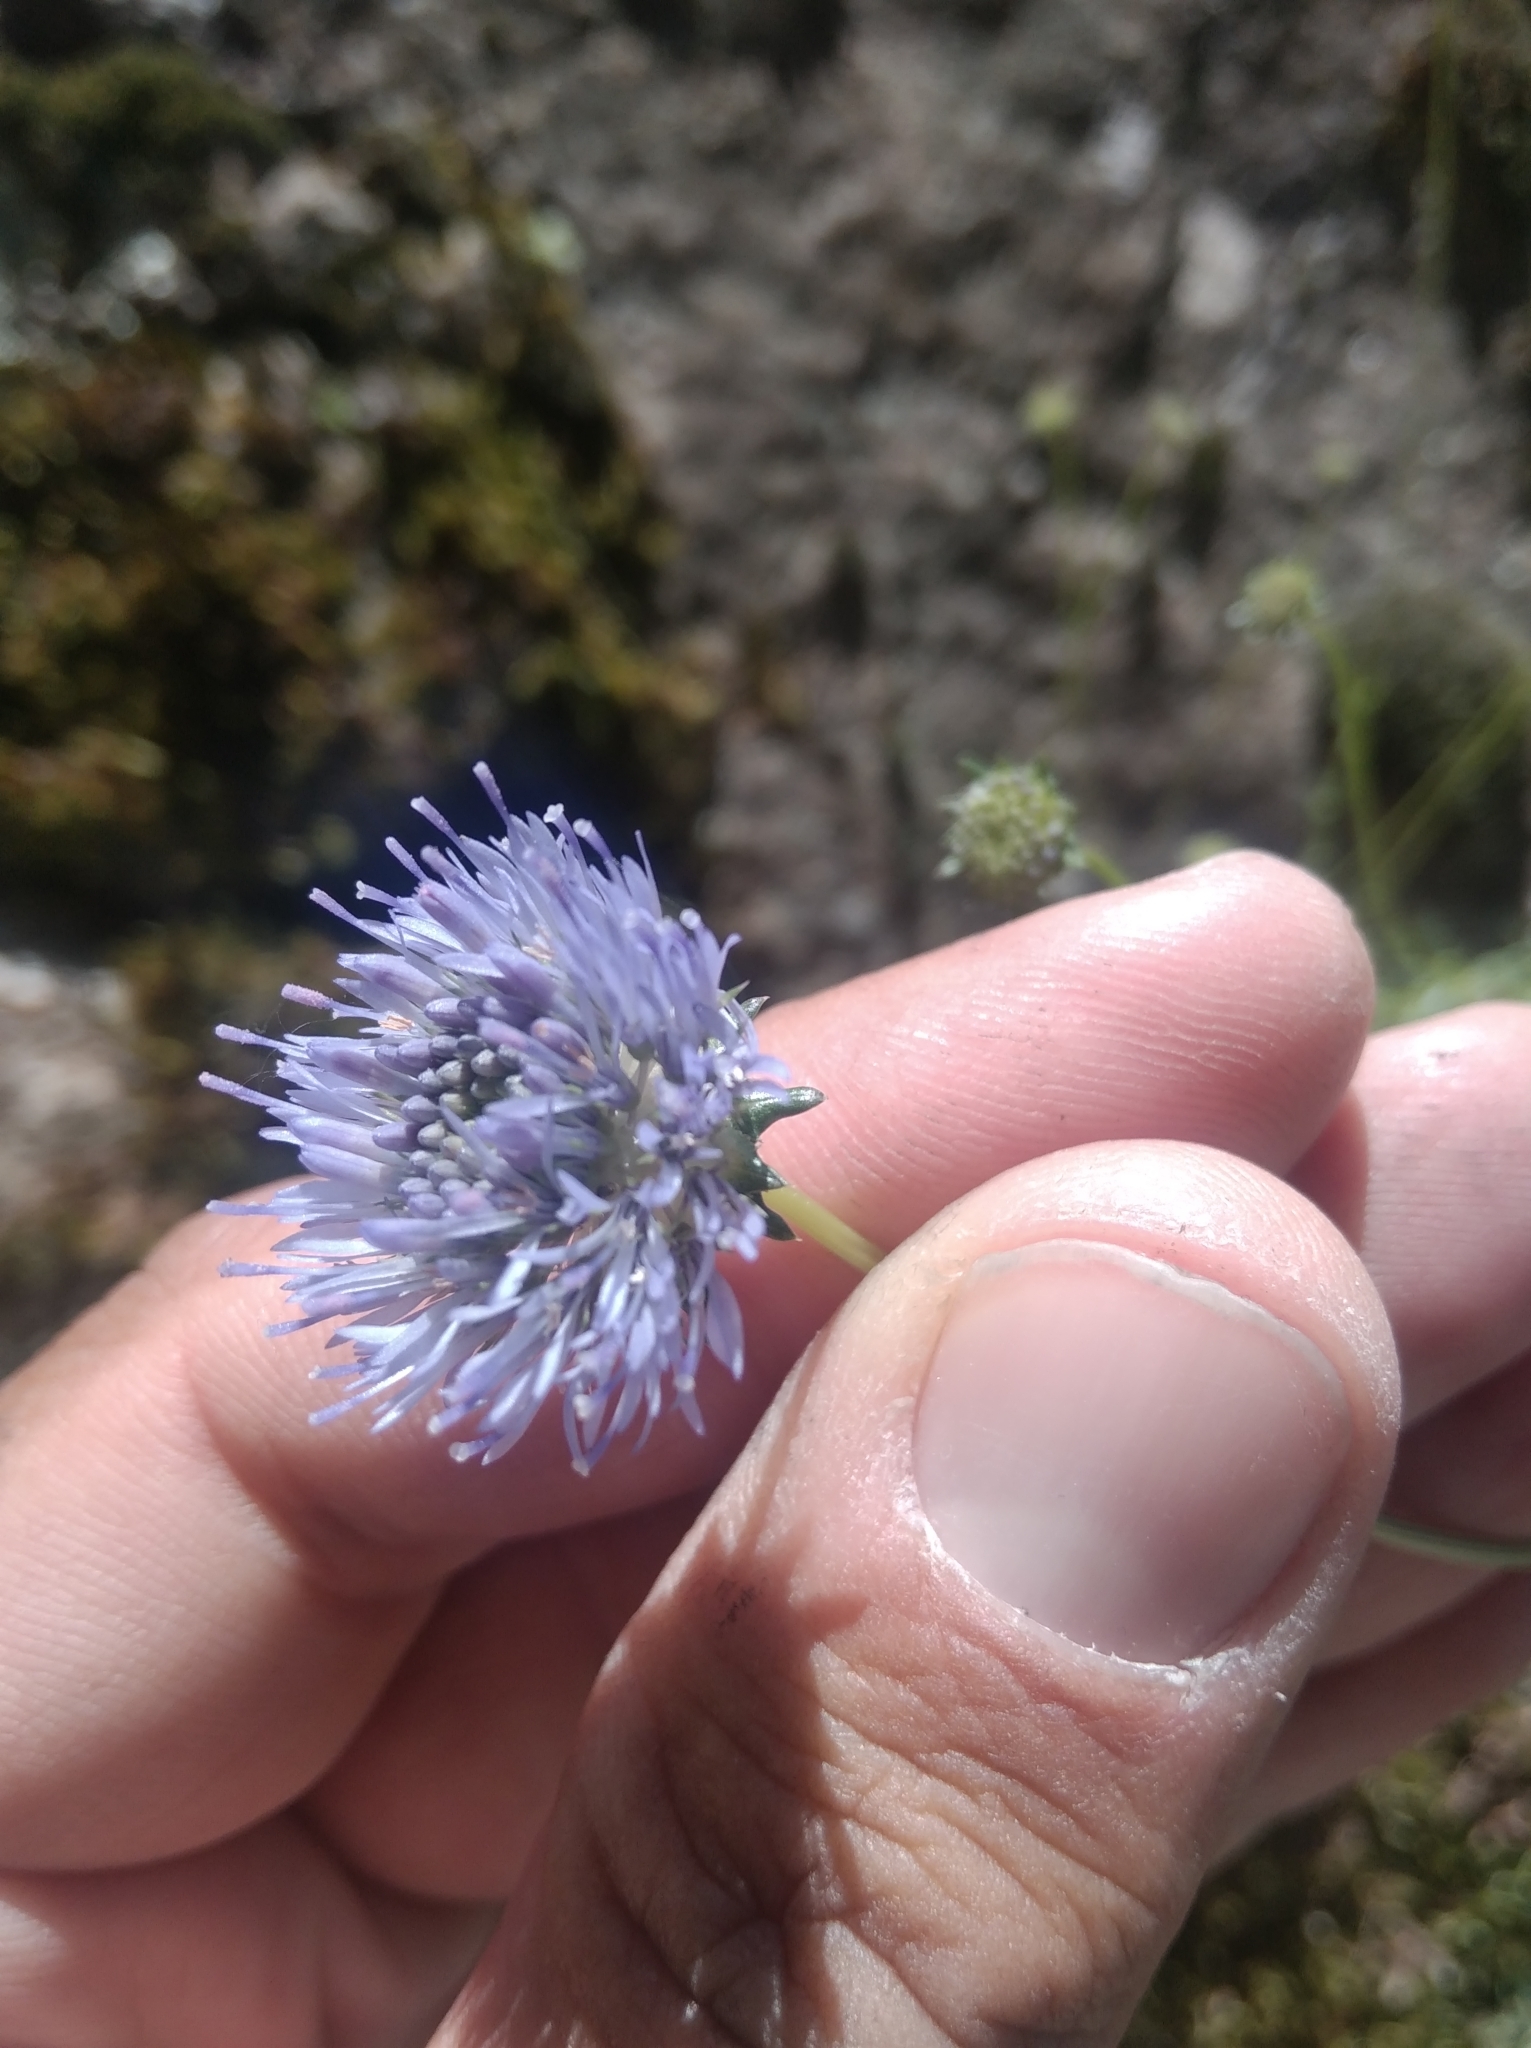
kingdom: Plantae
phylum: Tracheophyta
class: Magnoliopsida
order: Asterales
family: Campanulaceae
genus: Jasione
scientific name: Jasione montana
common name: Sheep's-bit
